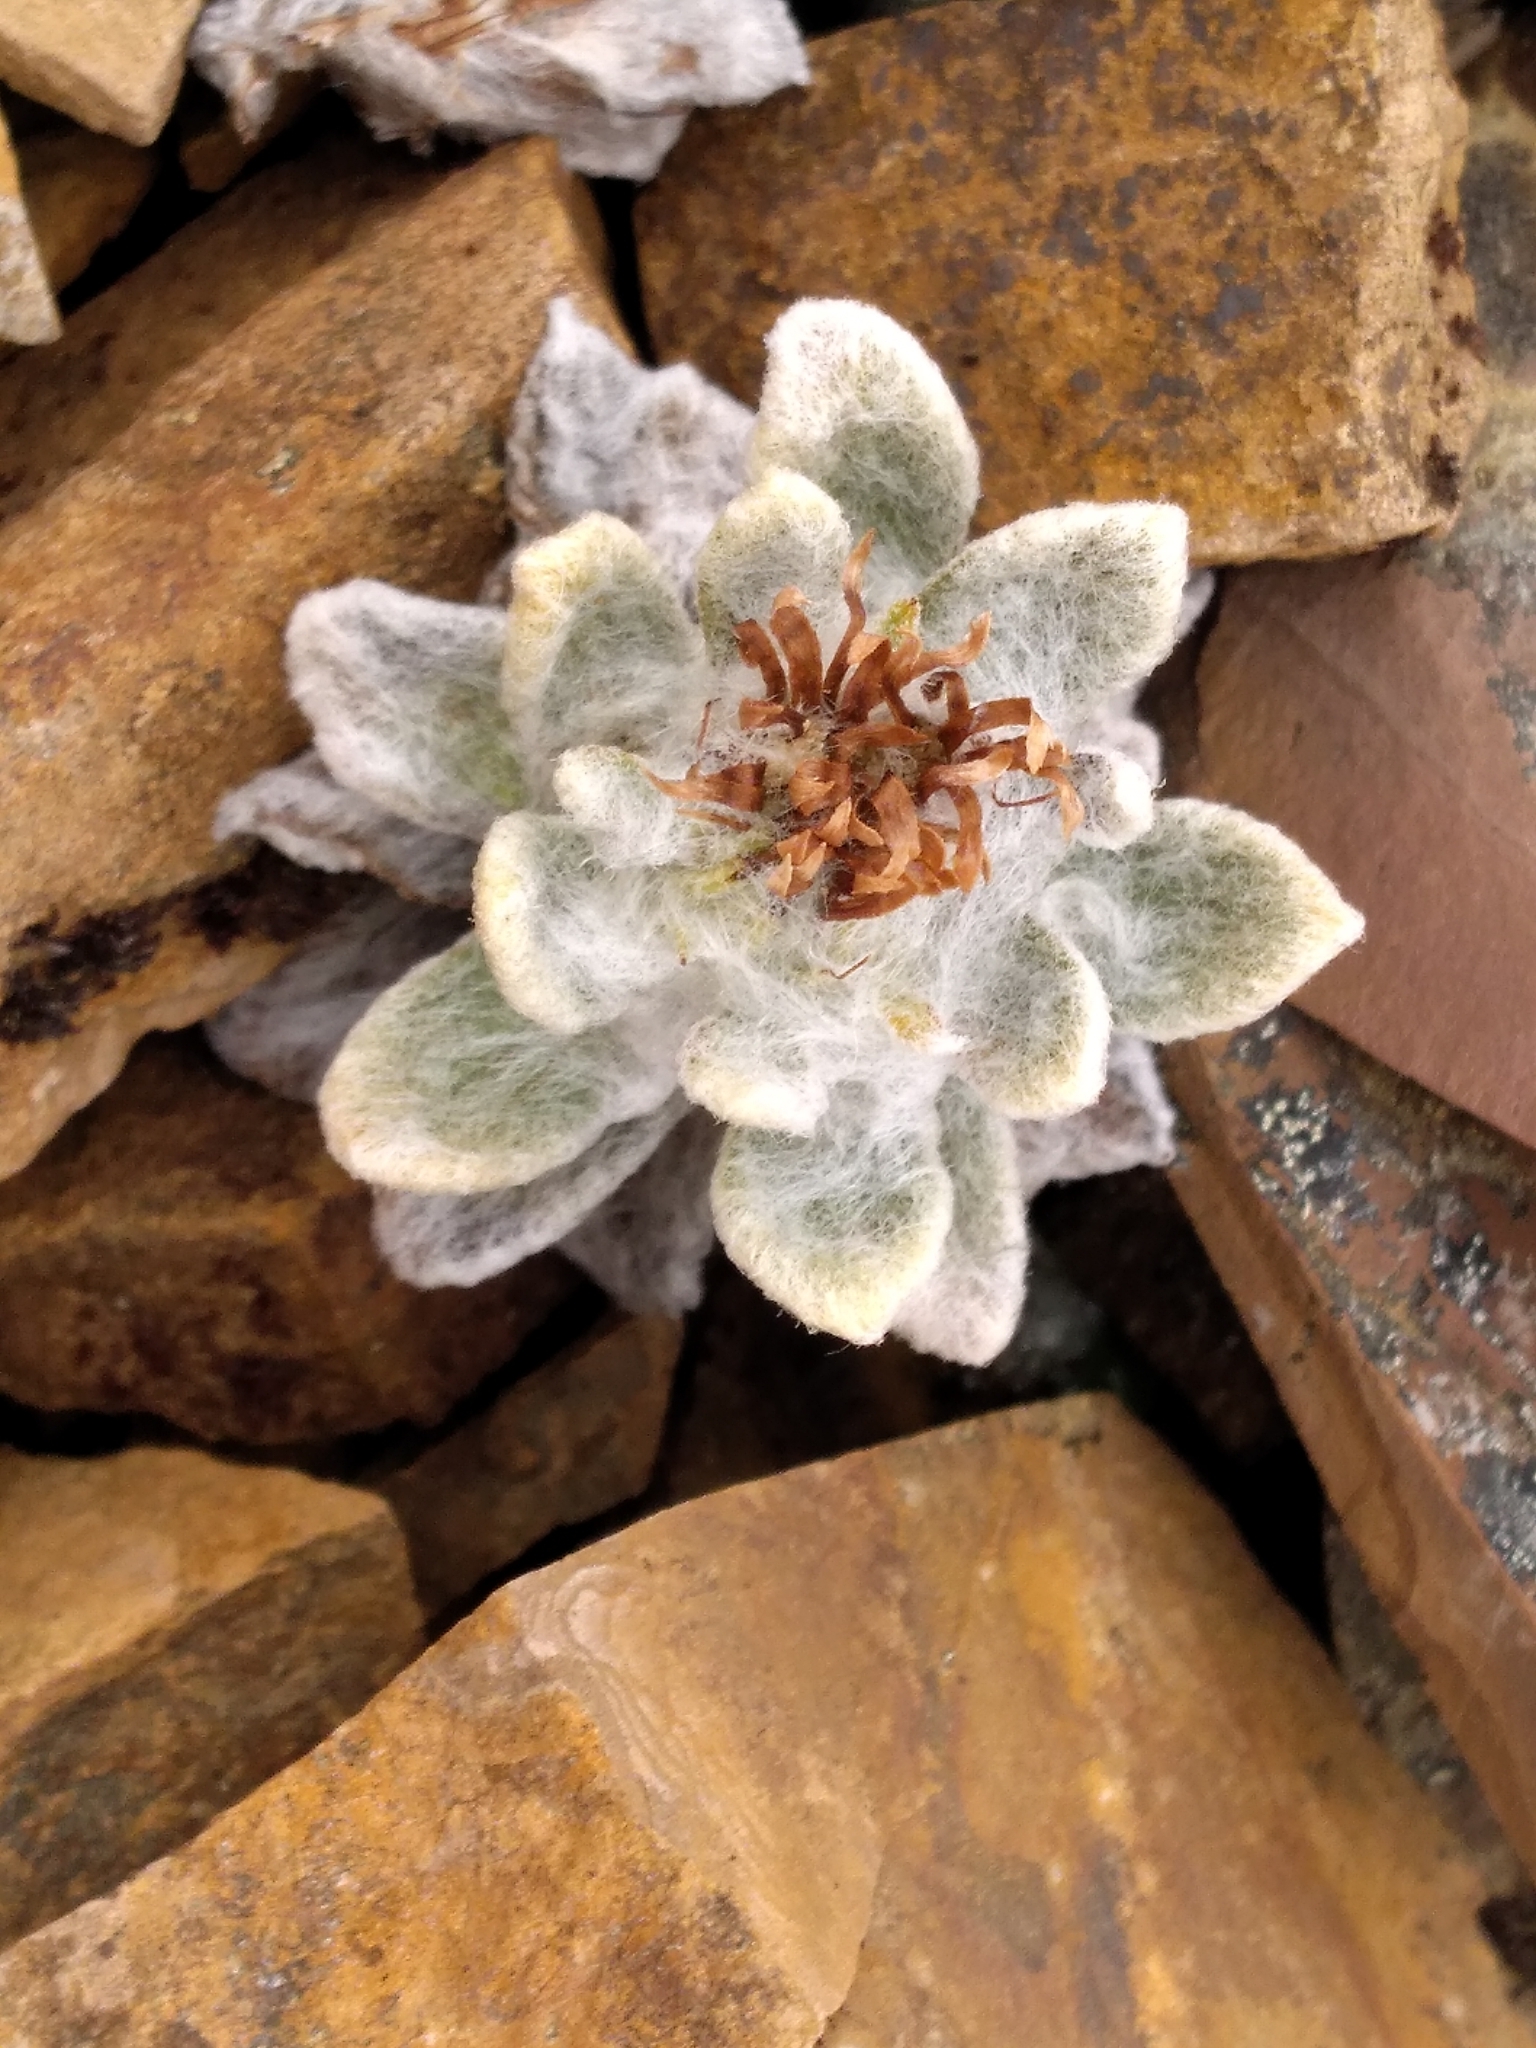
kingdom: Plantae
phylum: Tracheophyta
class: Magnoliopsida
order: Asterales
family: Asteraceae
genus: Haastia
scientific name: Haastia sinclairii
